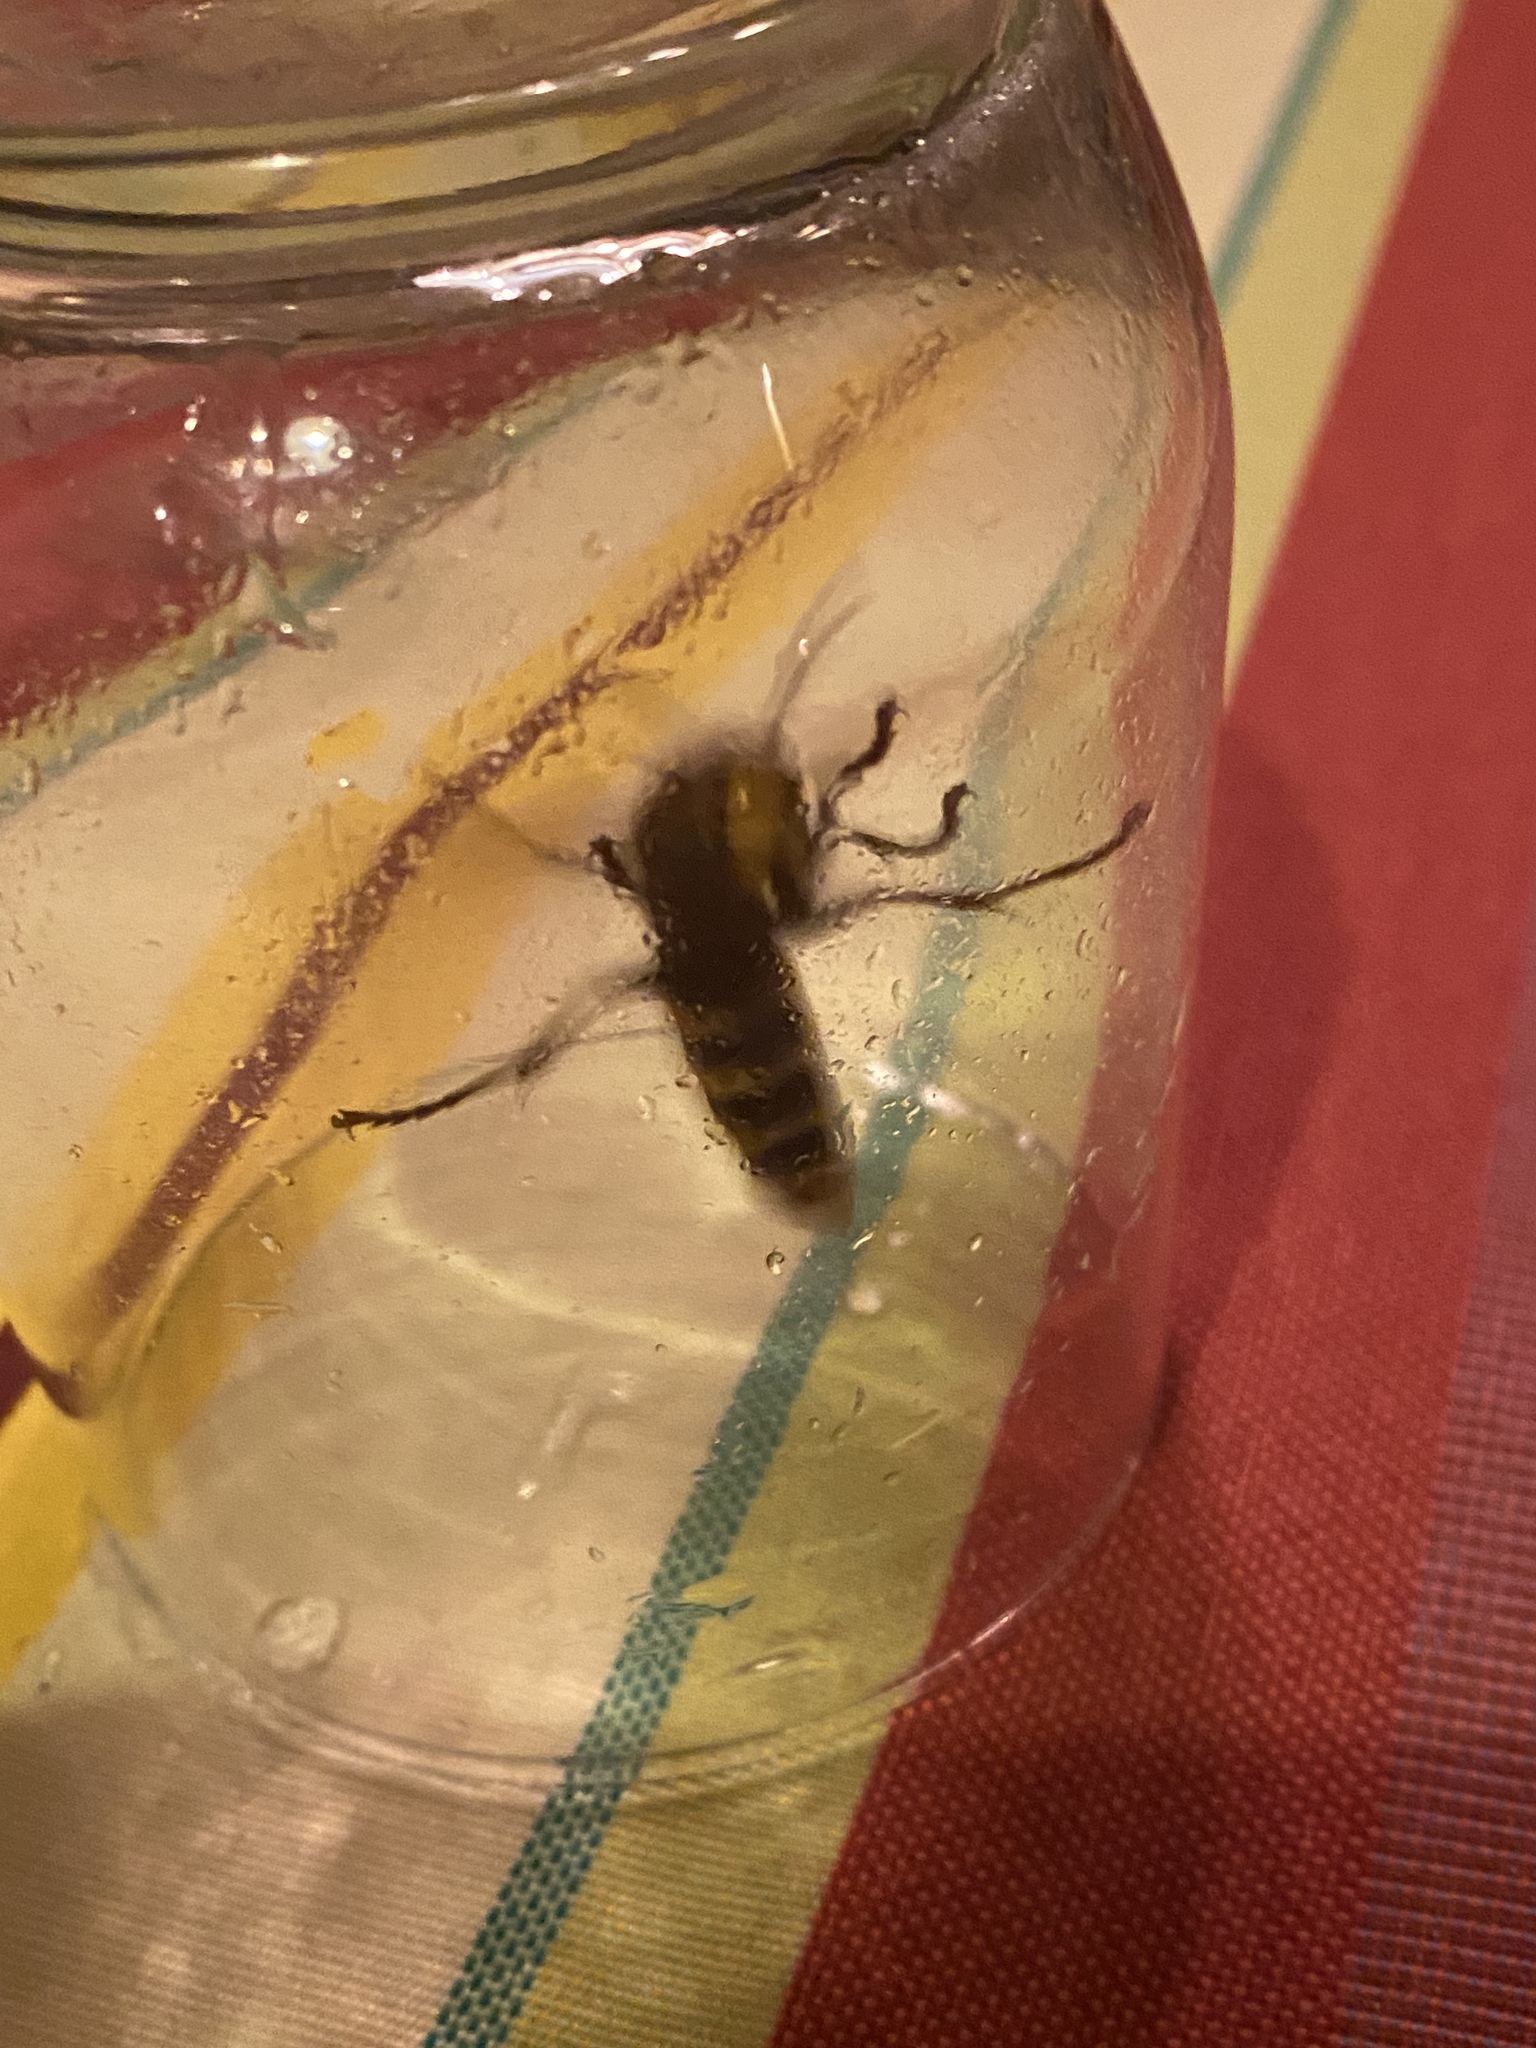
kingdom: Animalia
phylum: Arthropoda
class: Insecta
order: Hymenoptera
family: Vespidae
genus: Vespa
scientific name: Vespa crabro
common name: Hornet
